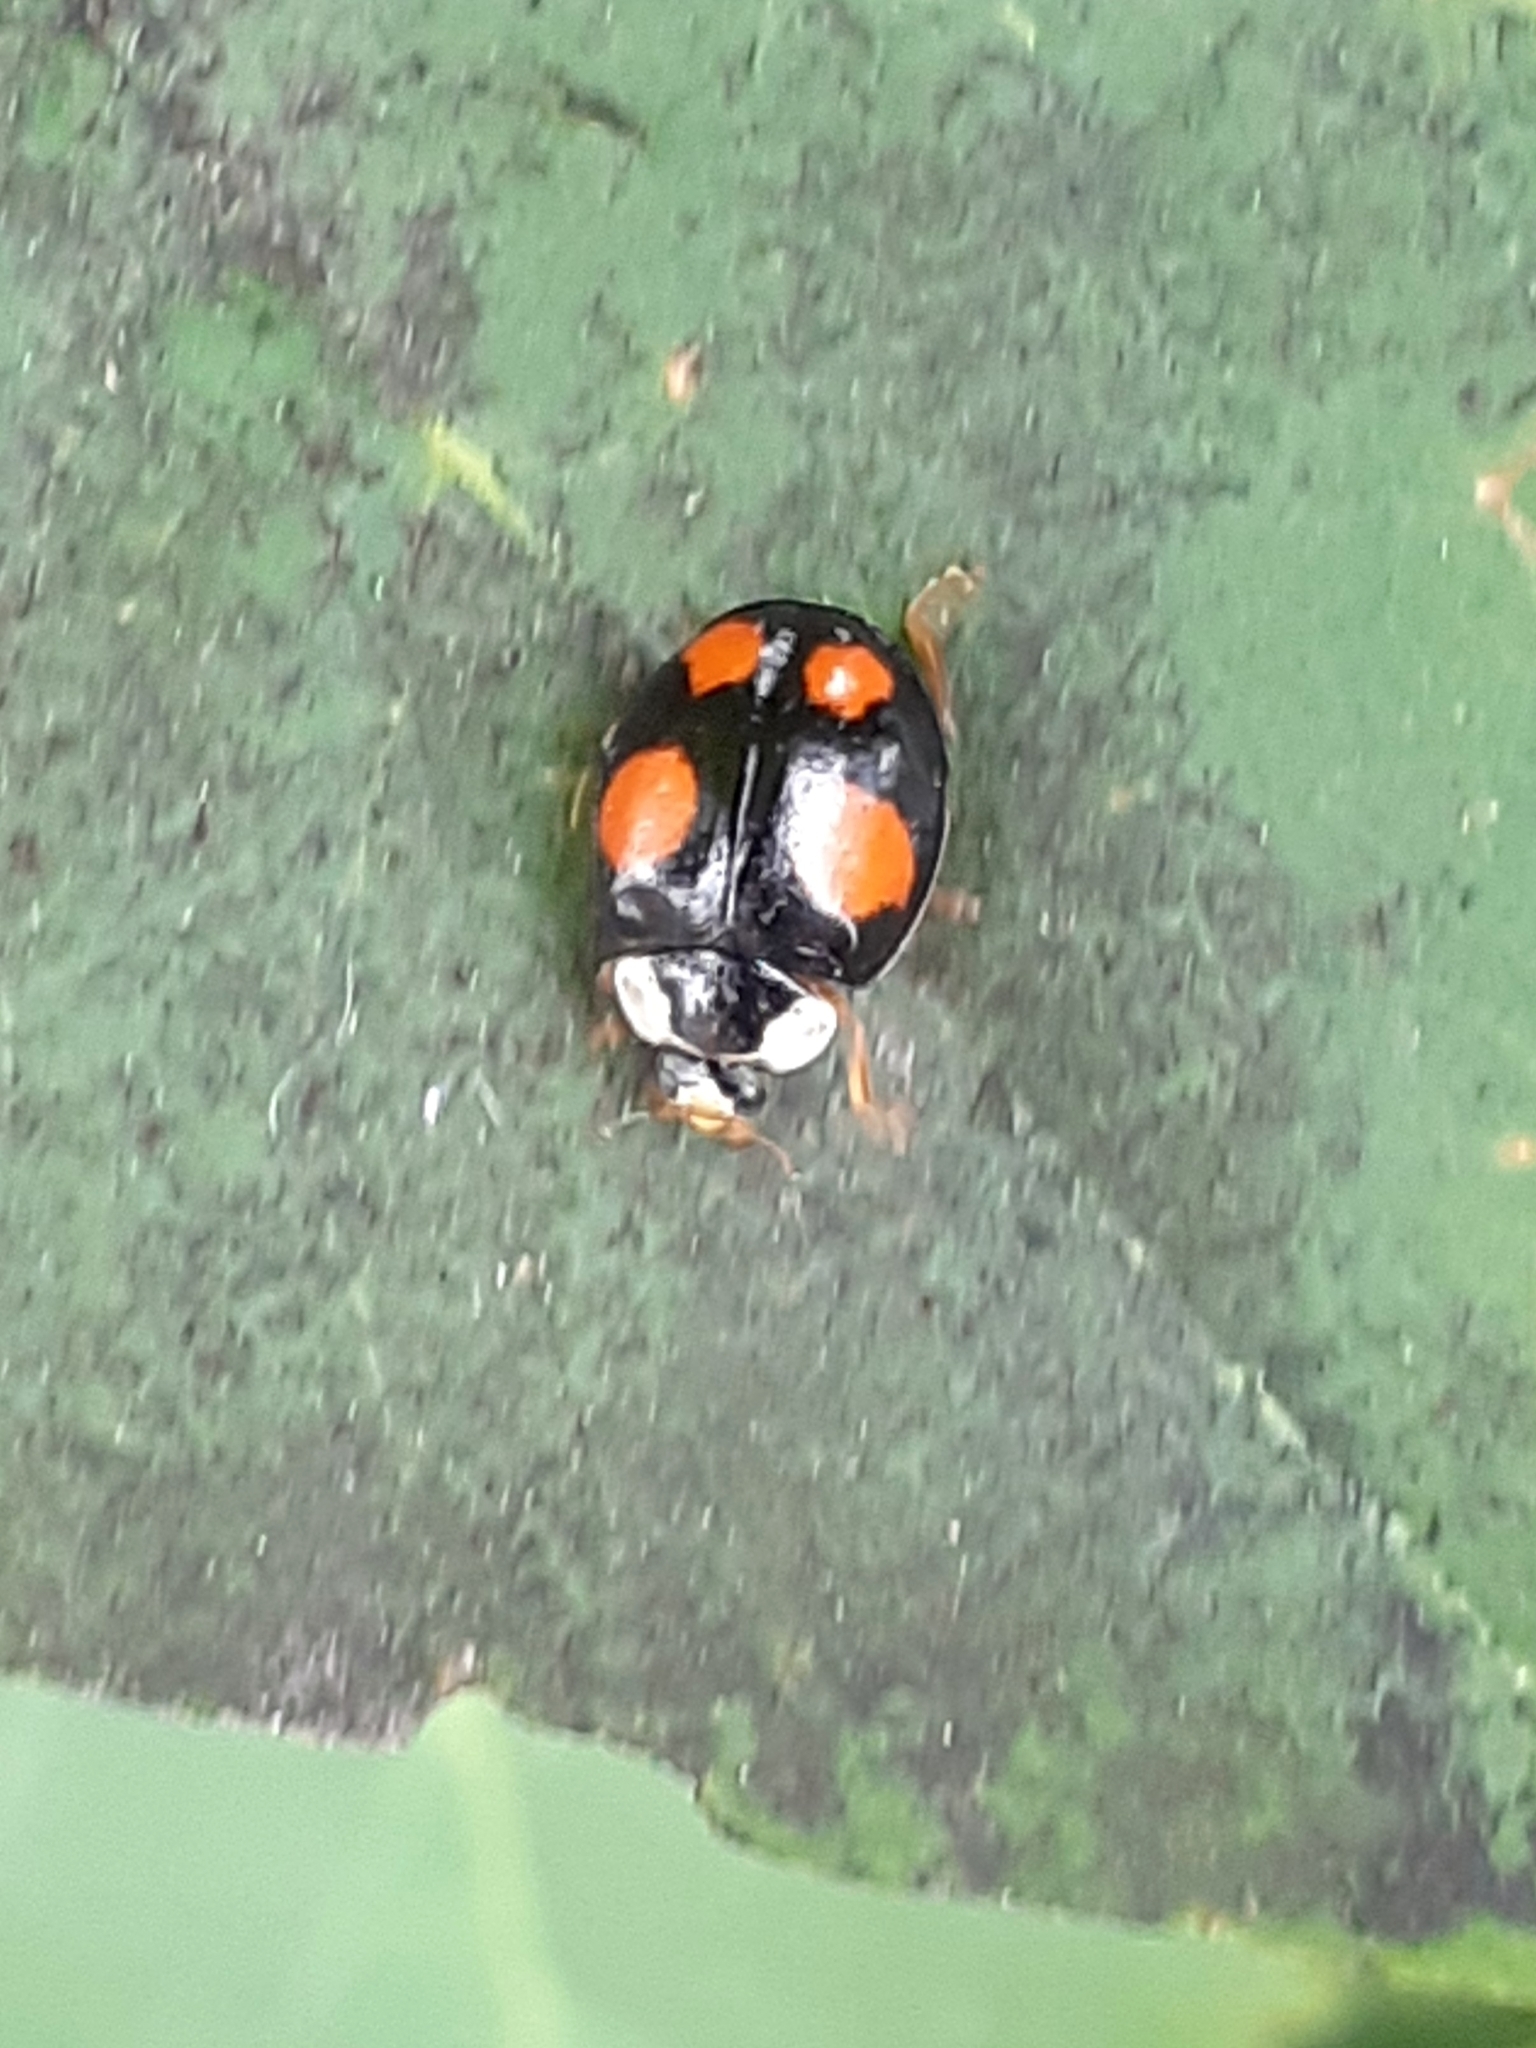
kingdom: Animalia
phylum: Arthropoda
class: Insecta
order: Coleoptera
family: Coccinellidae
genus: Harmonia
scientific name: Harmonia axyridis
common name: Harlequin ladybird
